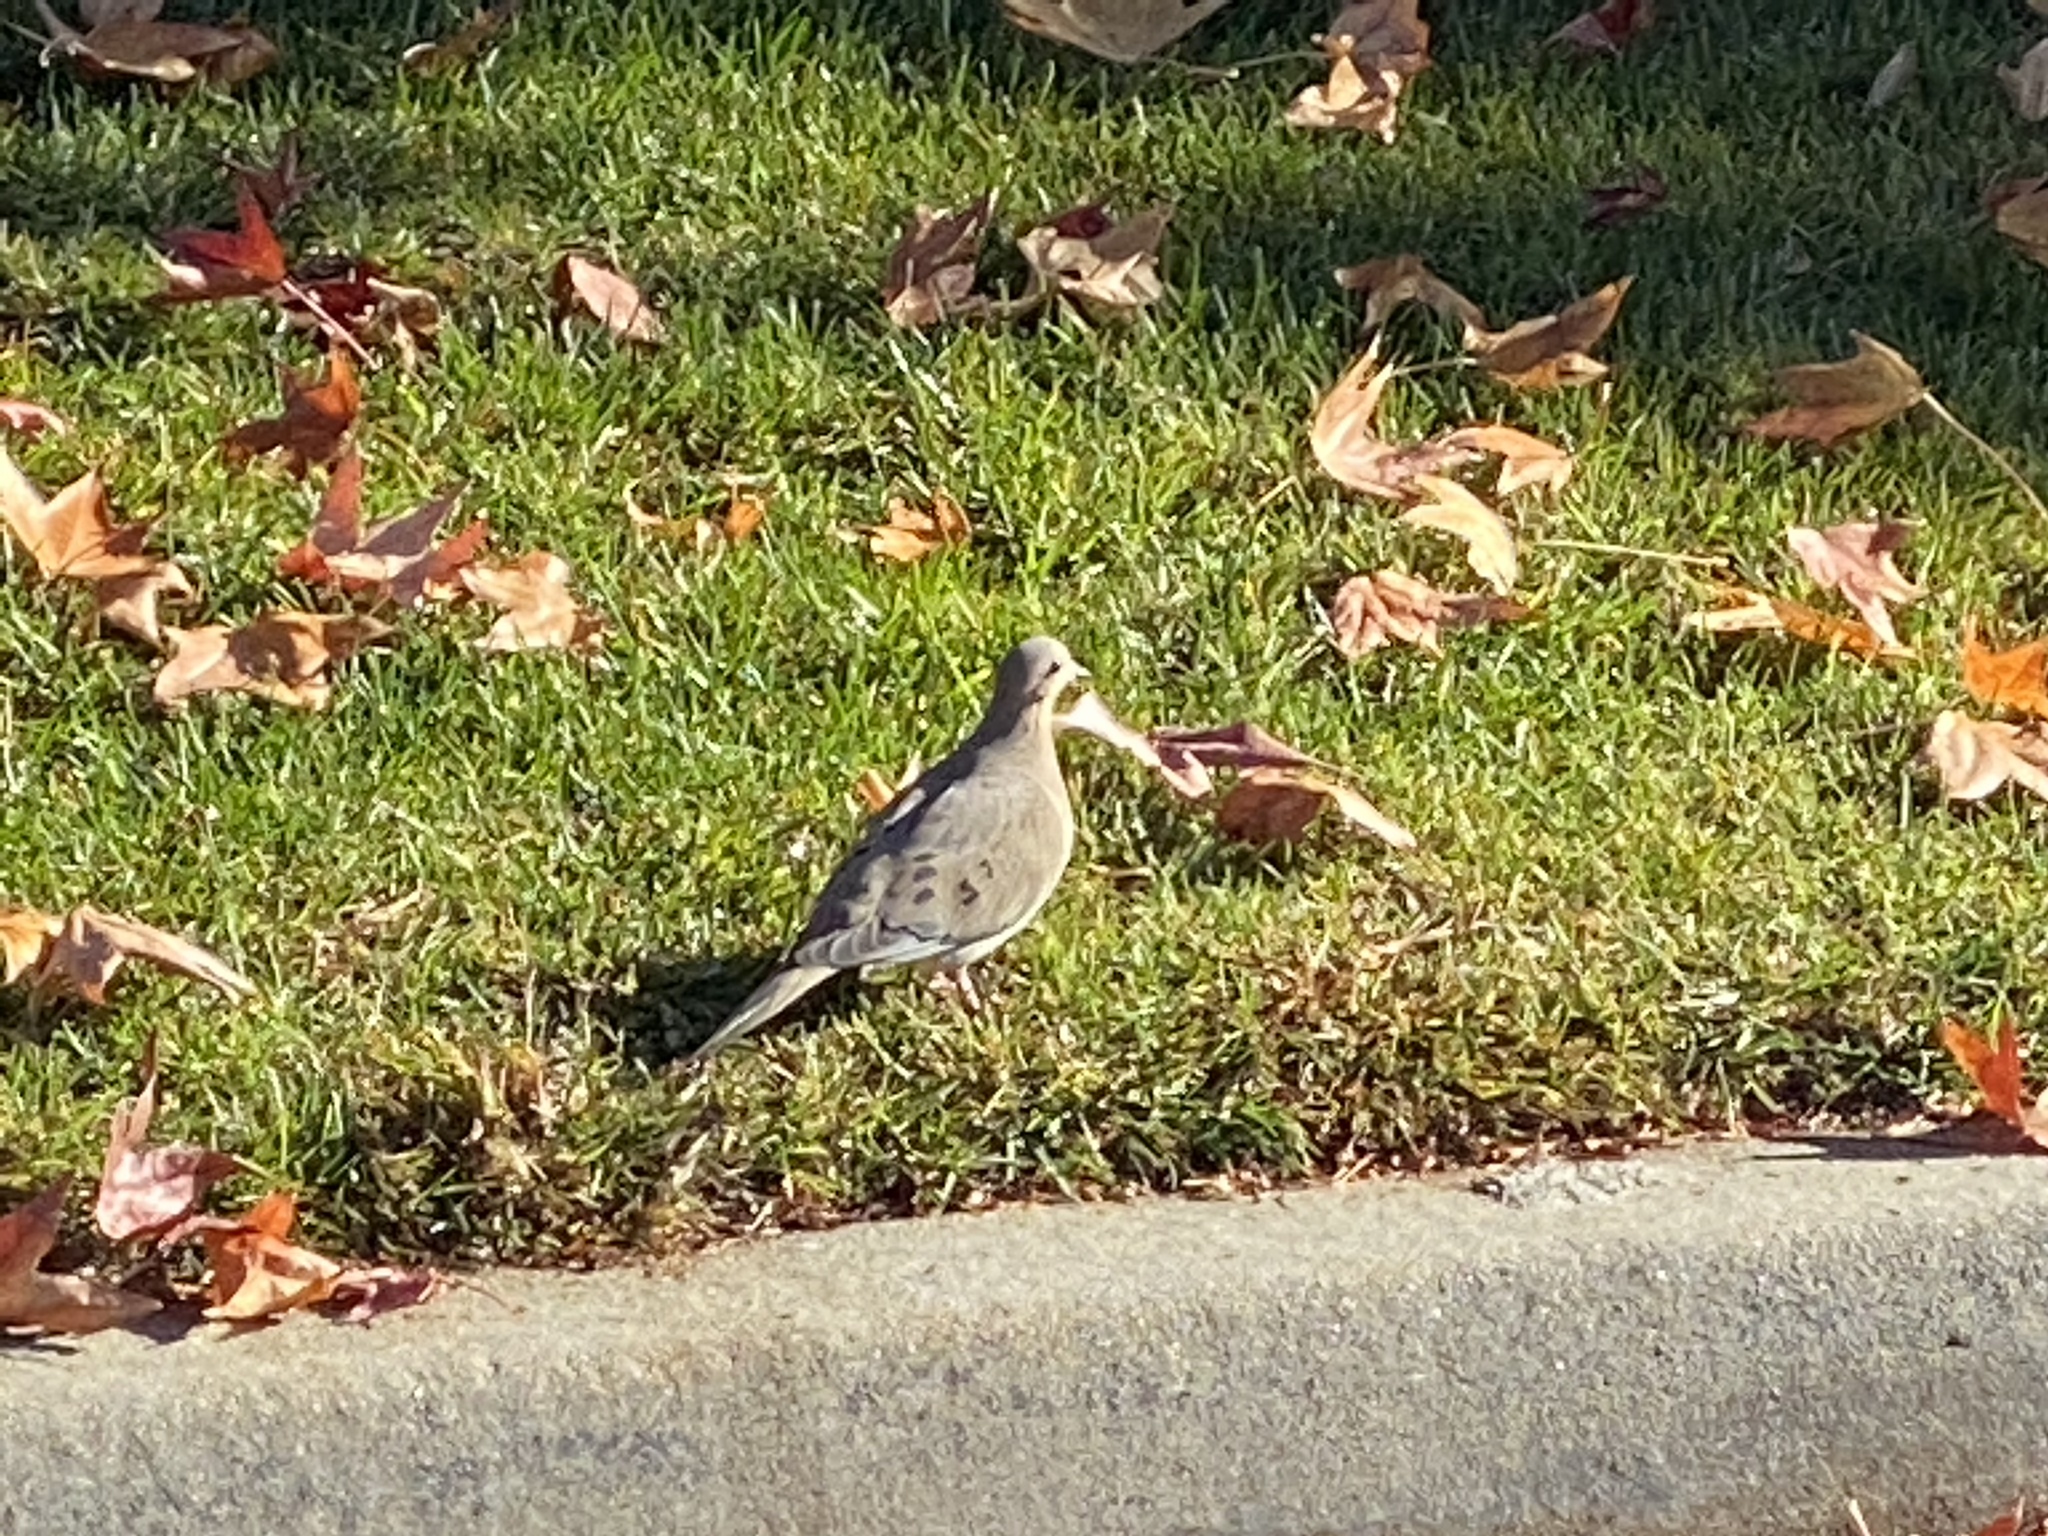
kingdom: Animalia
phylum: Chordata
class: Aves
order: Columbiformes
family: Columbidae
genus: Zenaida
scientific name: Zenaida macroura
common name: Mourning dove
